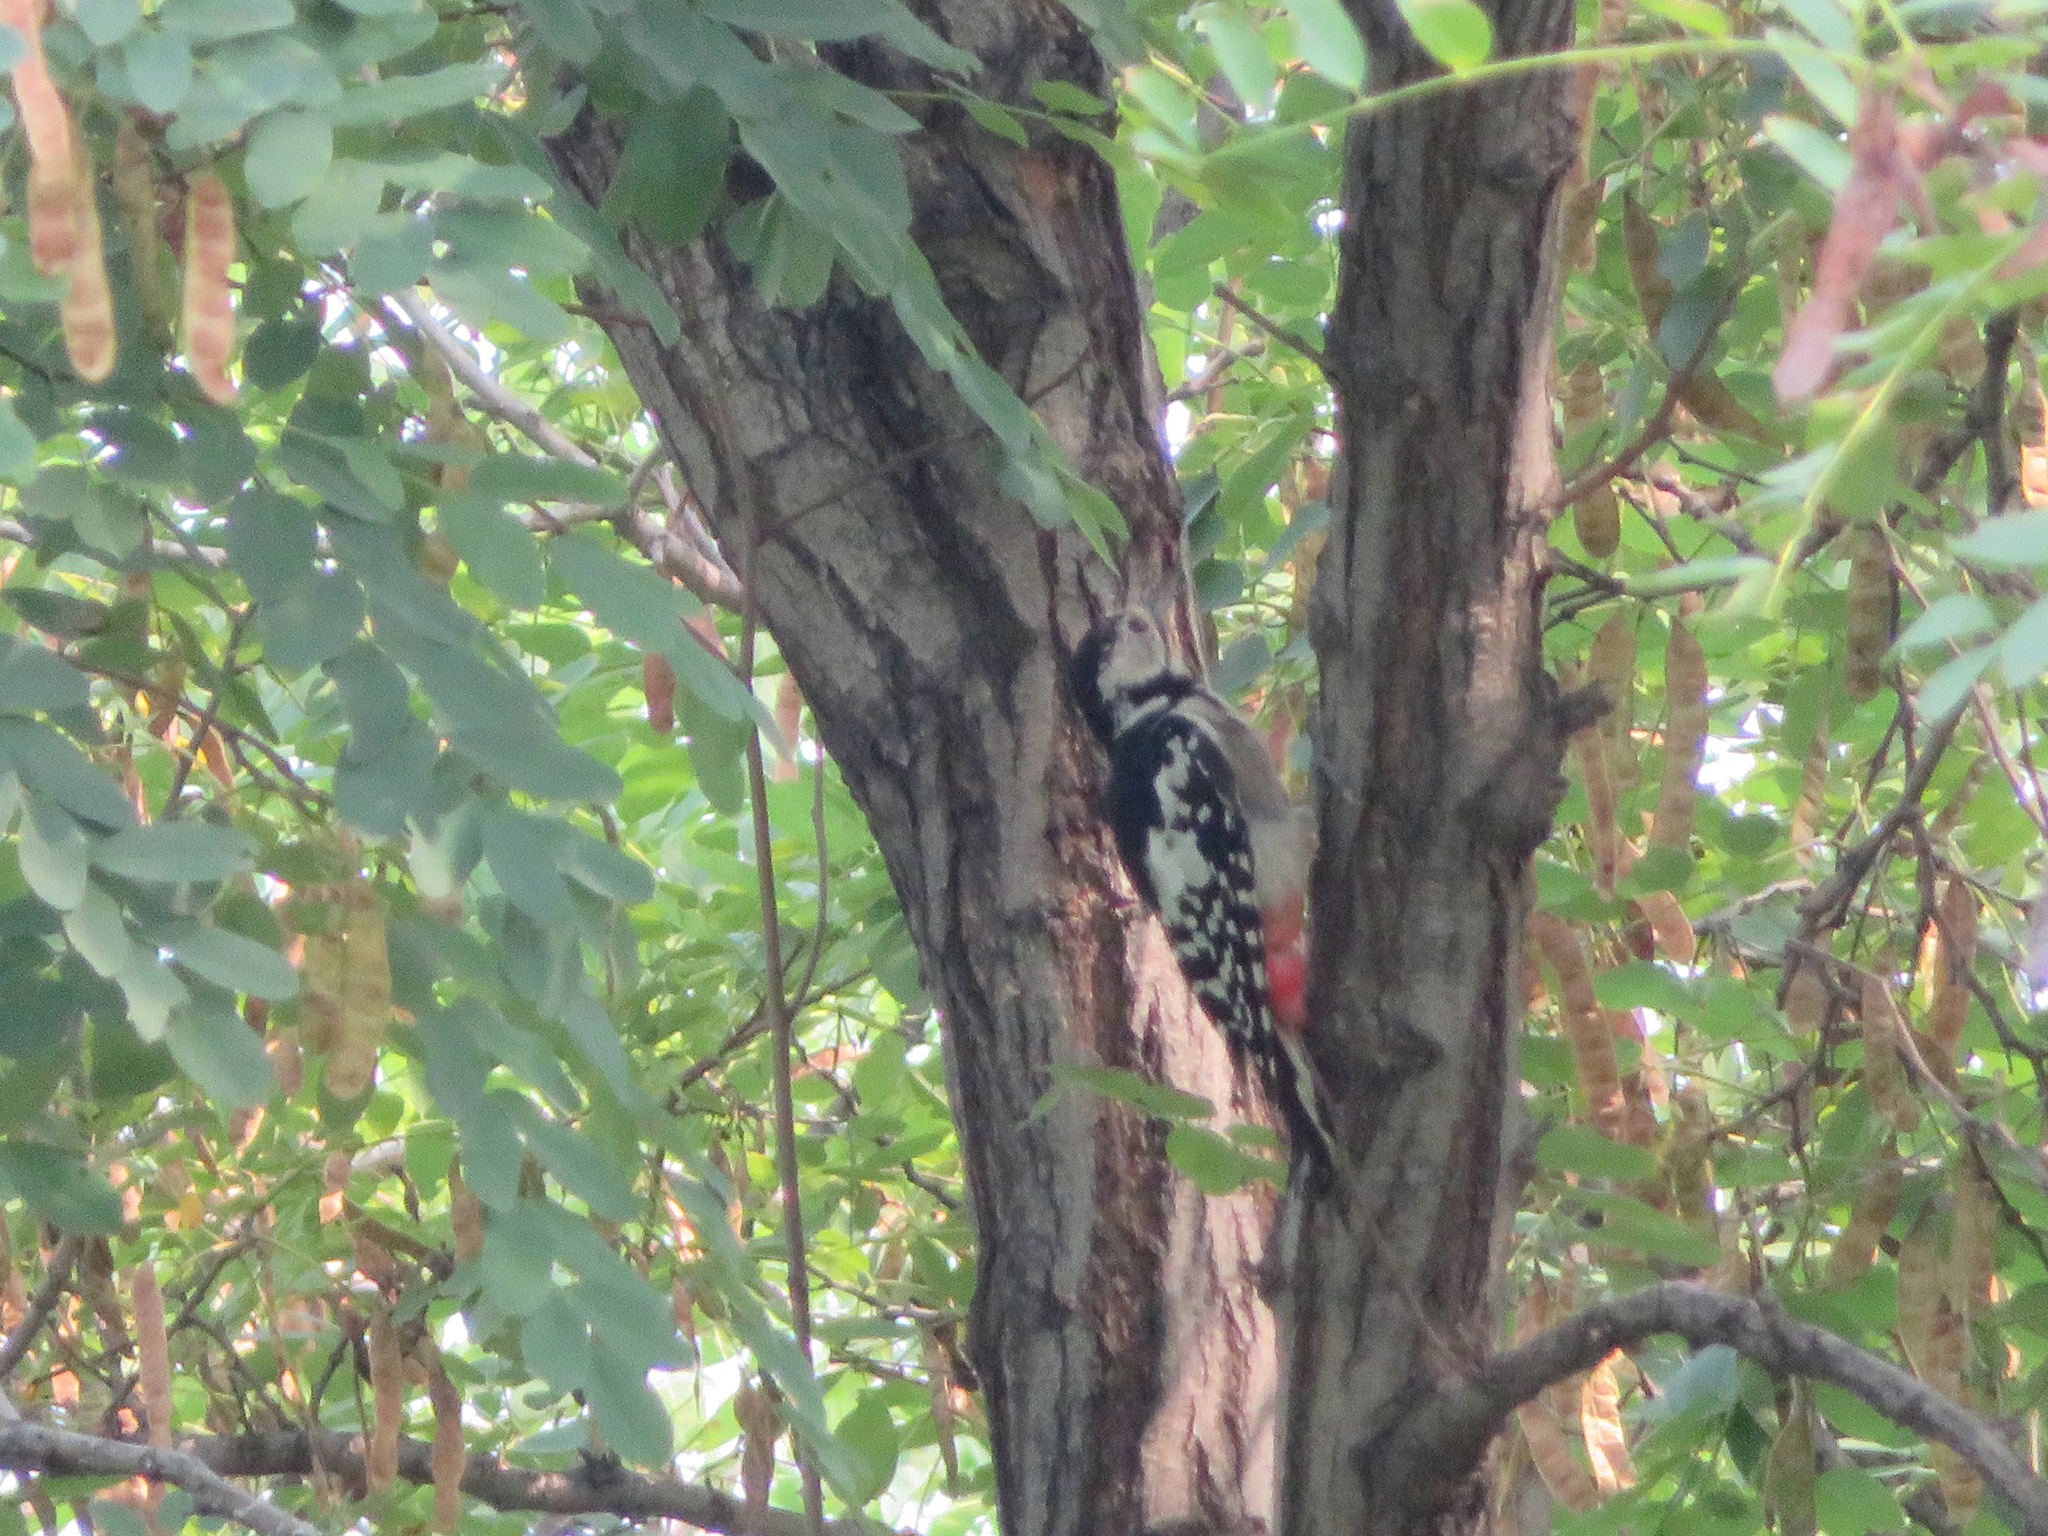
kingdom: Animalia
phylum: Chordata
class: Aves
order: Piciformes
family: Picidae
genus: Dendrocopos
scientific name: Dendrocopos leucotos
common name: White-backed woodpecker
